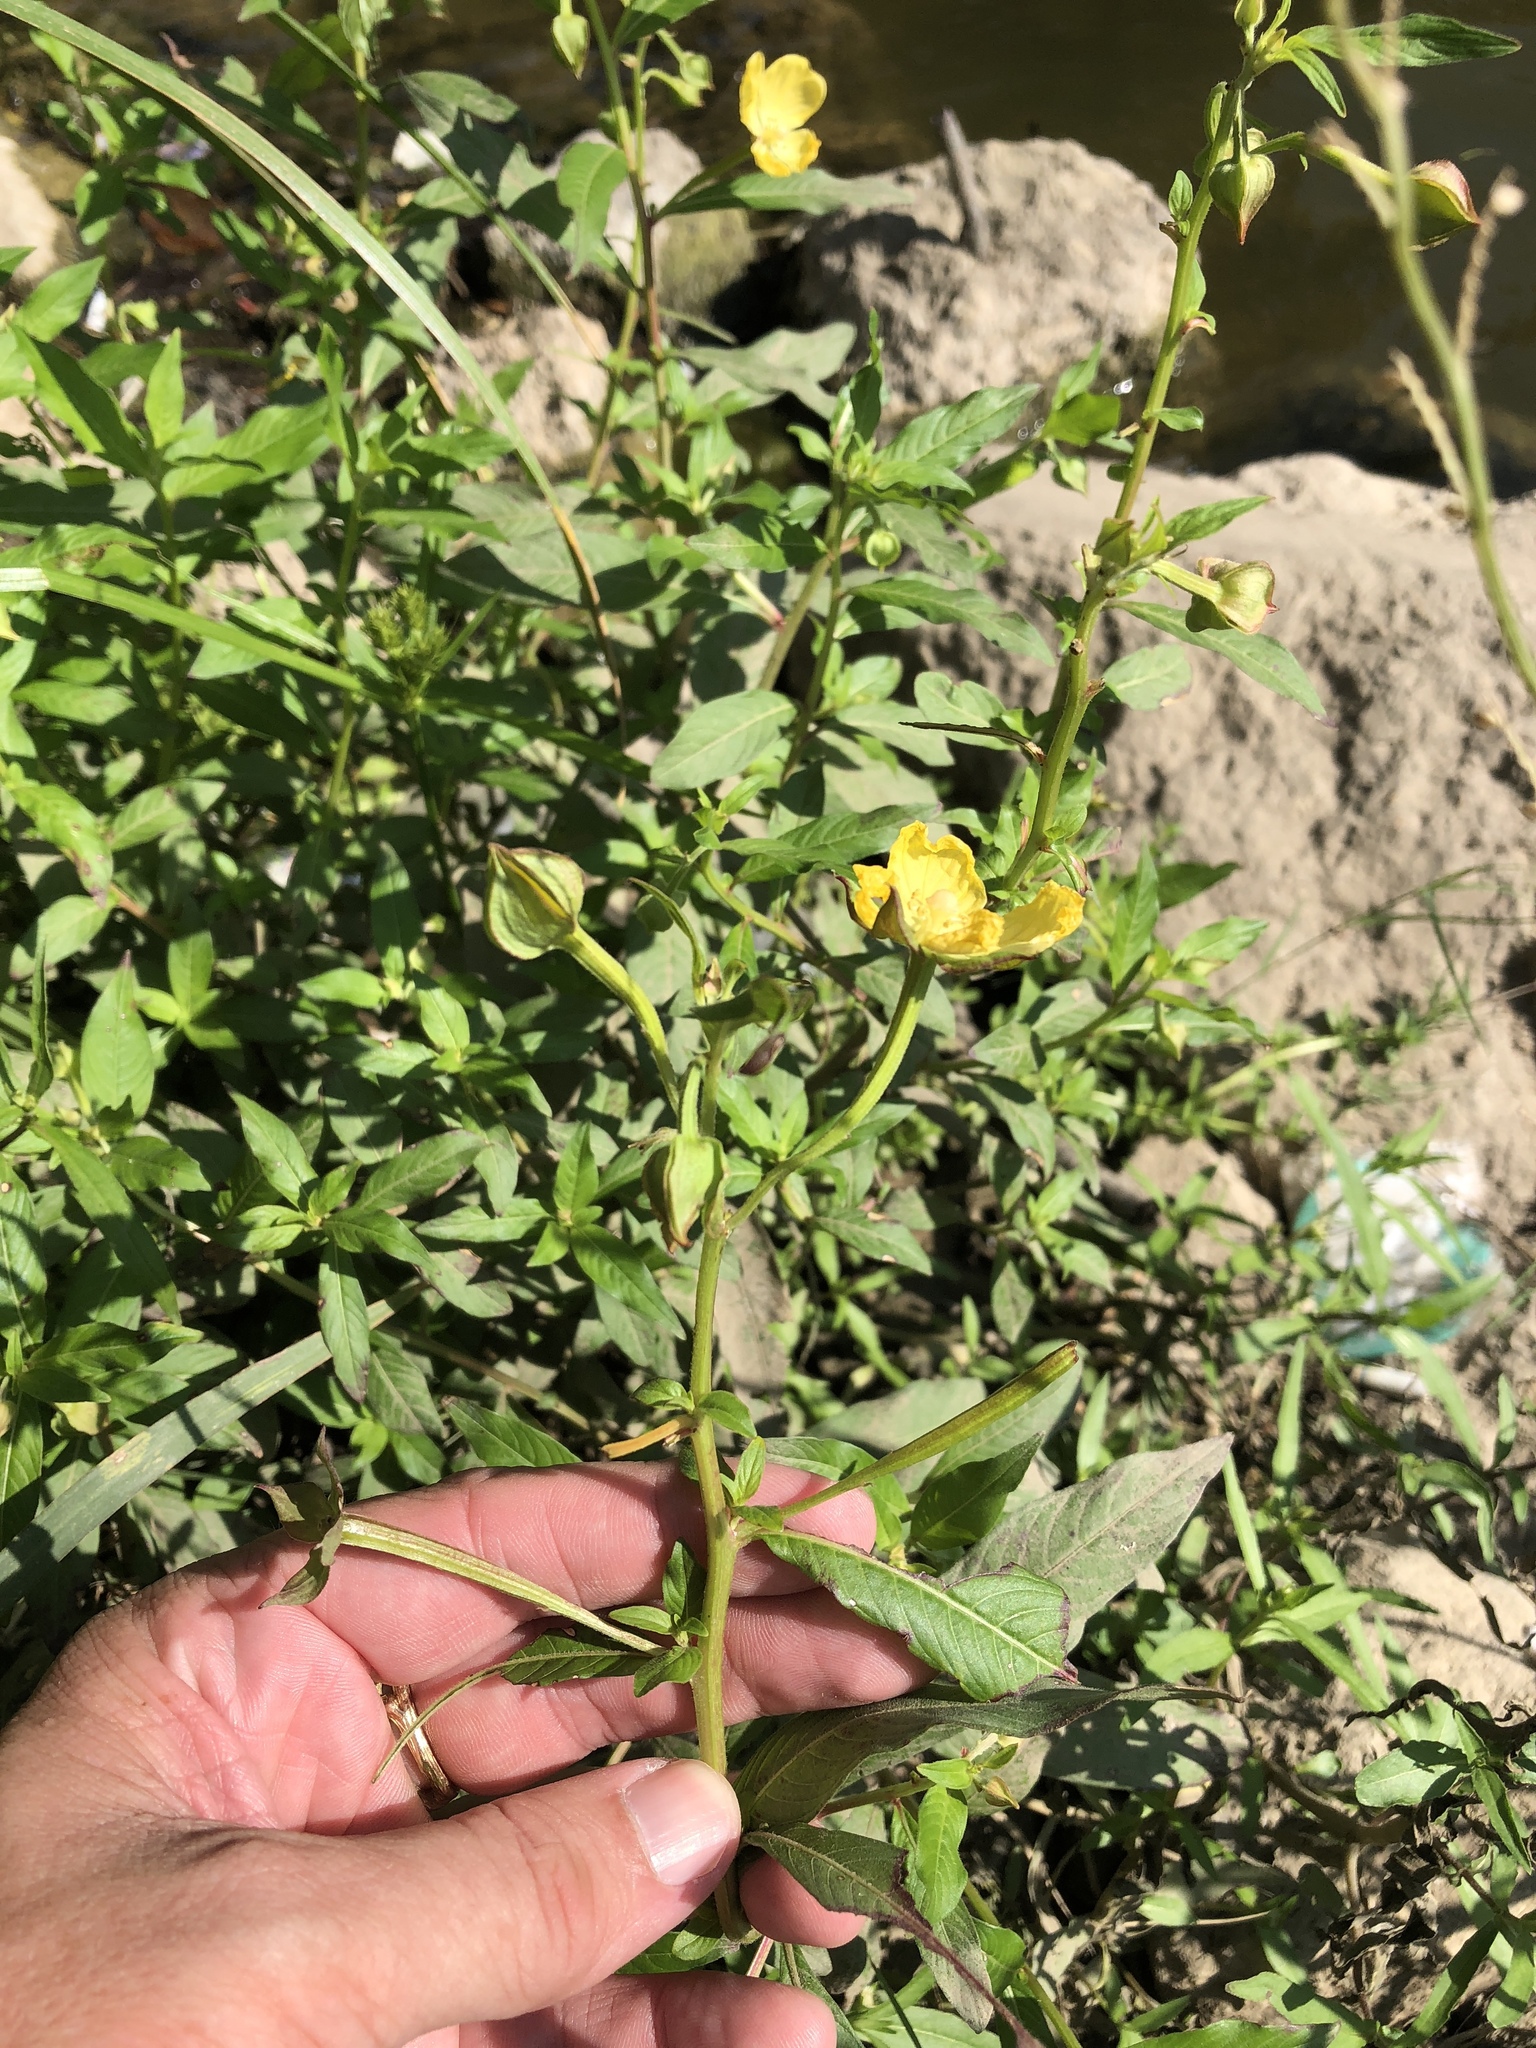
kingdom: Plantae
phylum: Tracheophyta
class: Magnoliopsida
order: Myrtales
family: Onagraceae
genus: Ludwigia
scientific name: Ludwigia octovalvis
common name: Water-primrose
